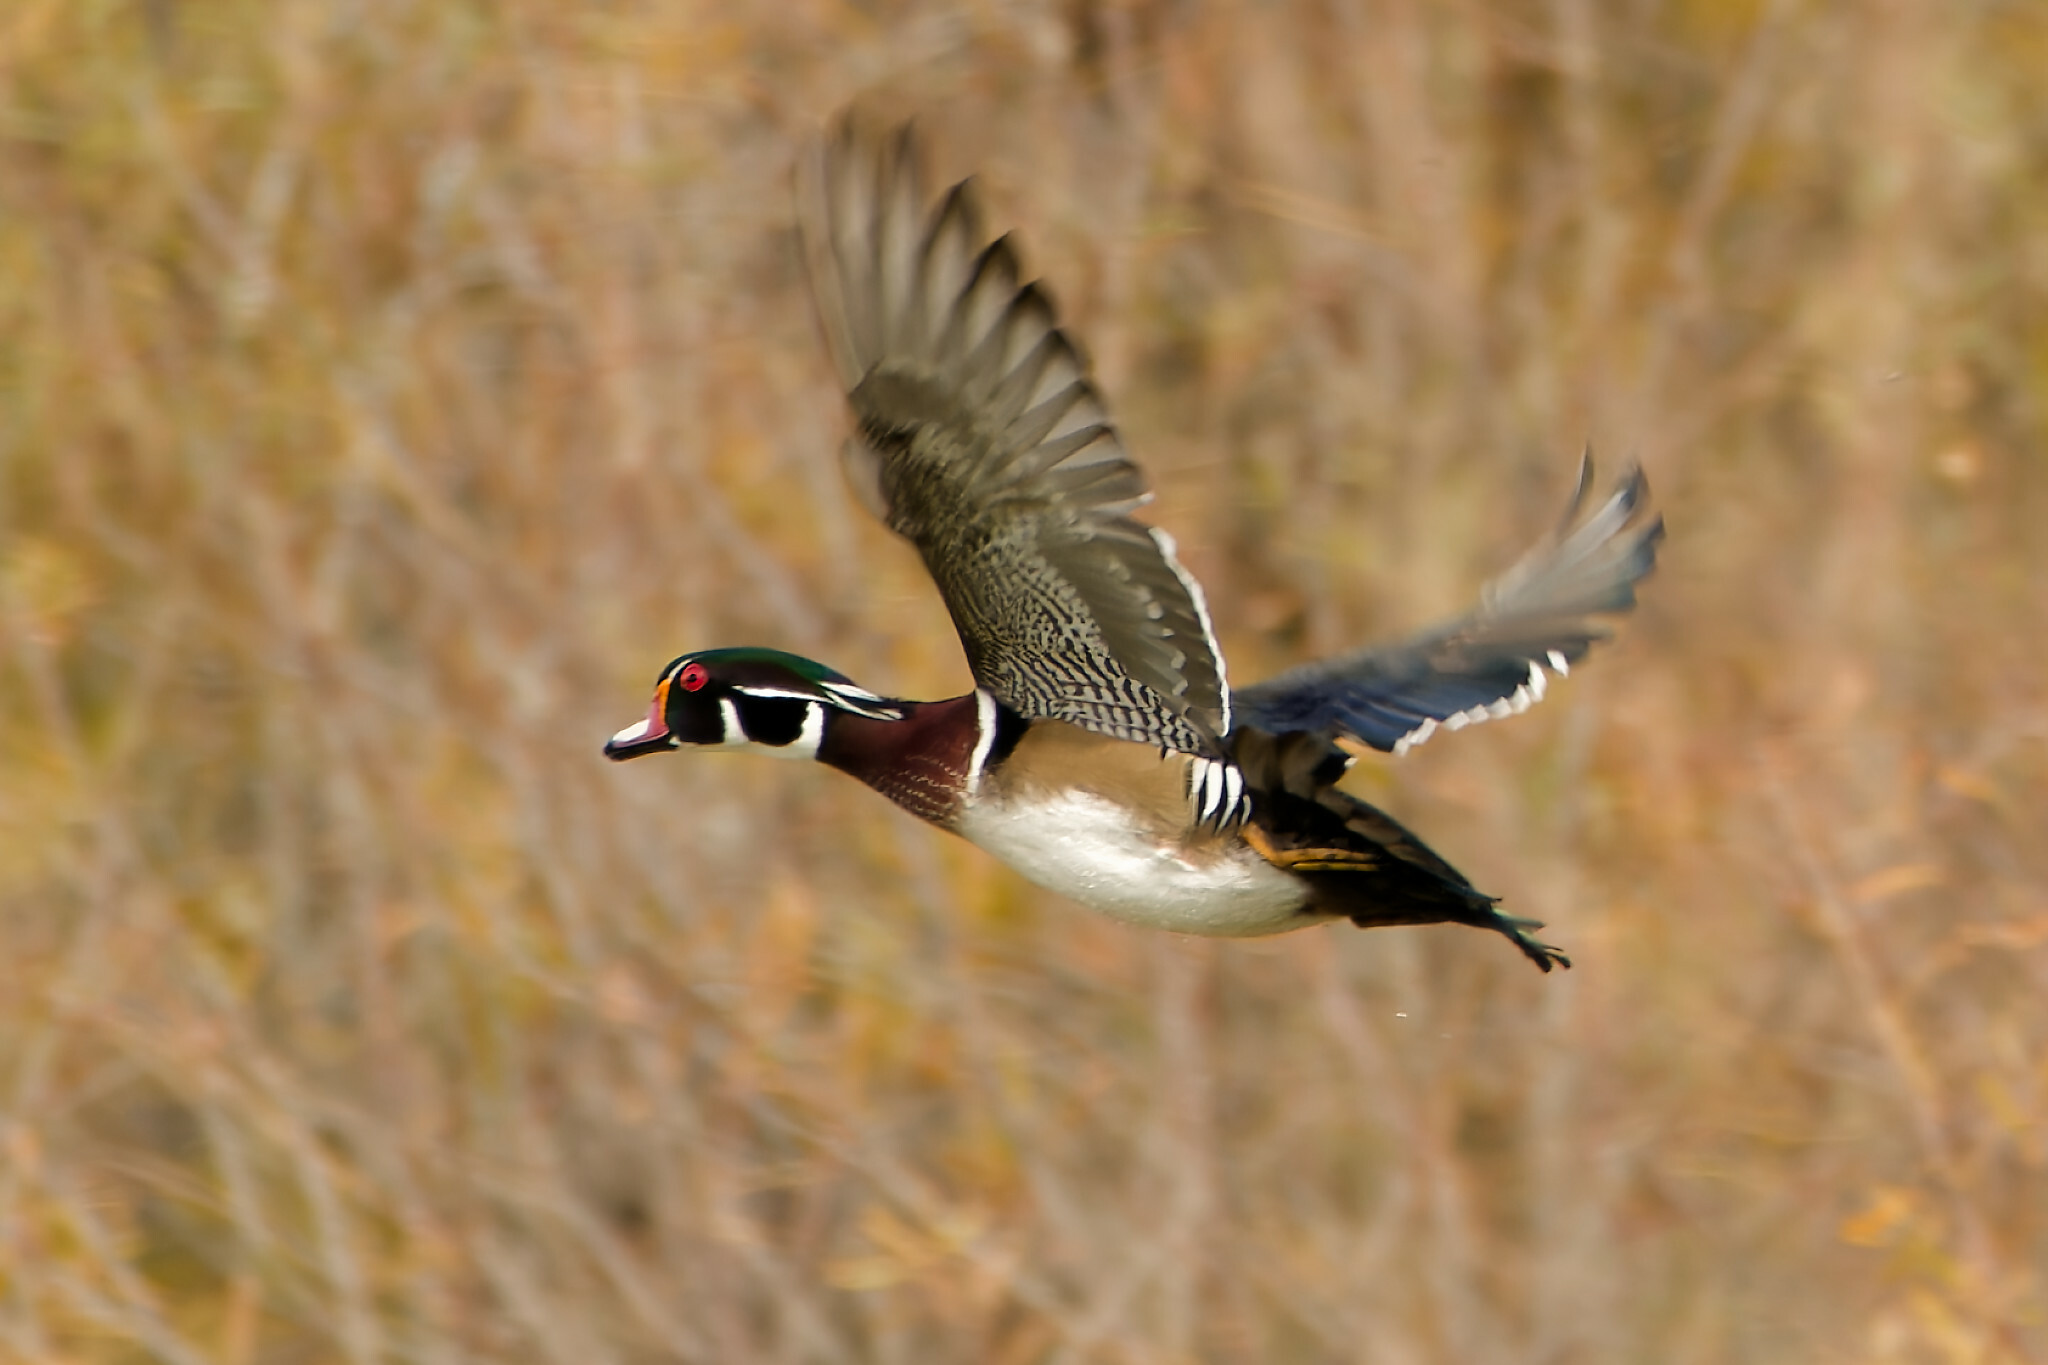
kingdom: Animalia
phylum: Chordata
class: Aves
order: Anseriformes
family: Anatidae
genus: Aix
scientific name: Aix sponsa
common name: Wood duck
